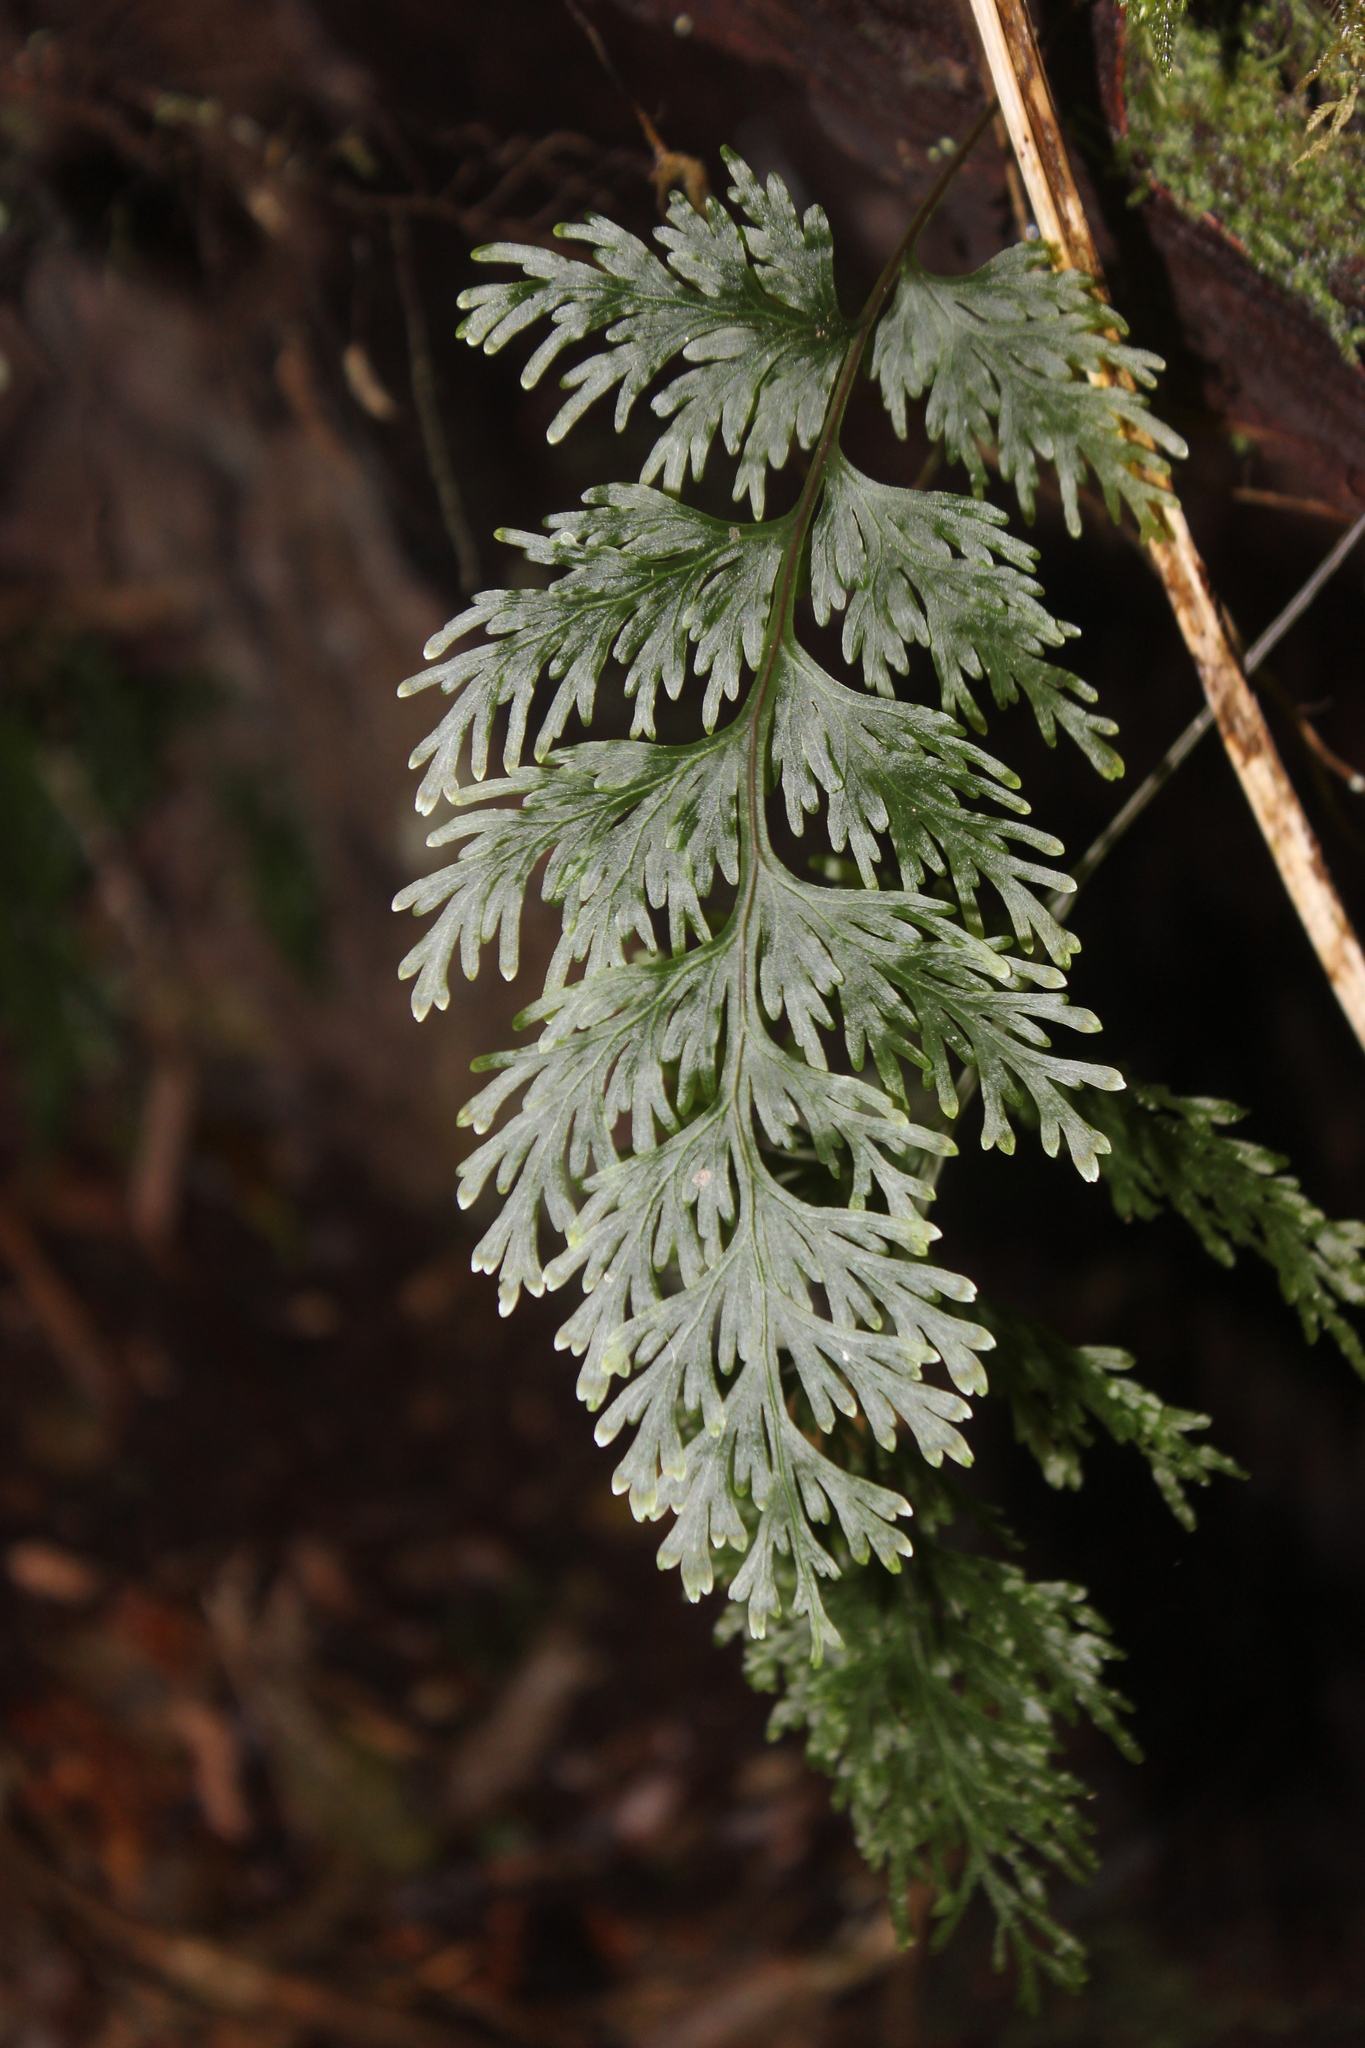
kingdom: Plantae
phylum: Tracheophyta
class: Polypodiopsida
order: Hymenophyllales
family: Hymenophyllaceae
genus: Hymenophyllum
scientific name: Hymenophyllum dilatatum
